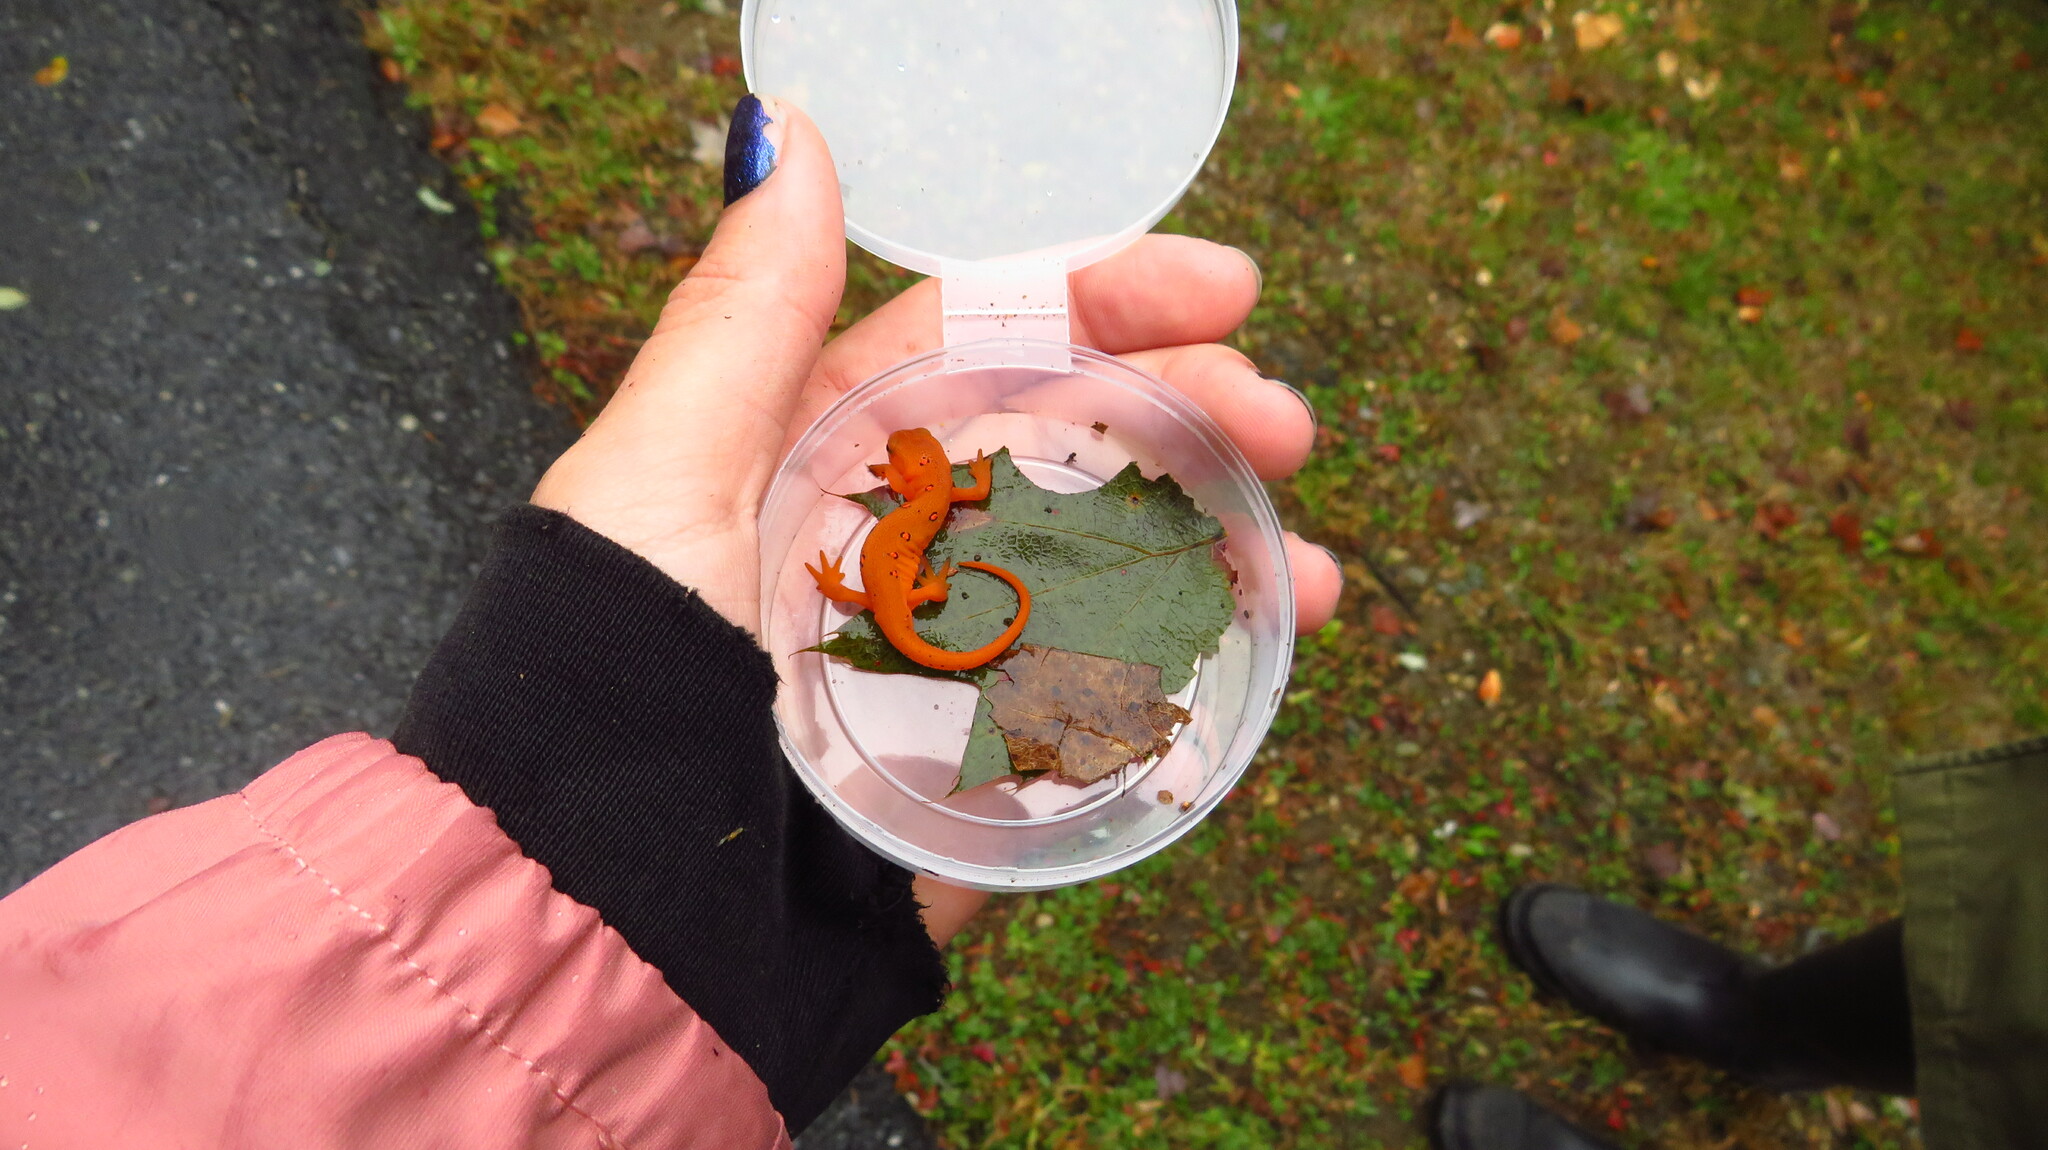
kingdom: Animalia
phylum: Chordata
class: Amphibia
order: Caudata
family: Salamandridae
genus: Notophthalmus
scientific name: Notophthalmus viridescens
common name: Eastern newt
